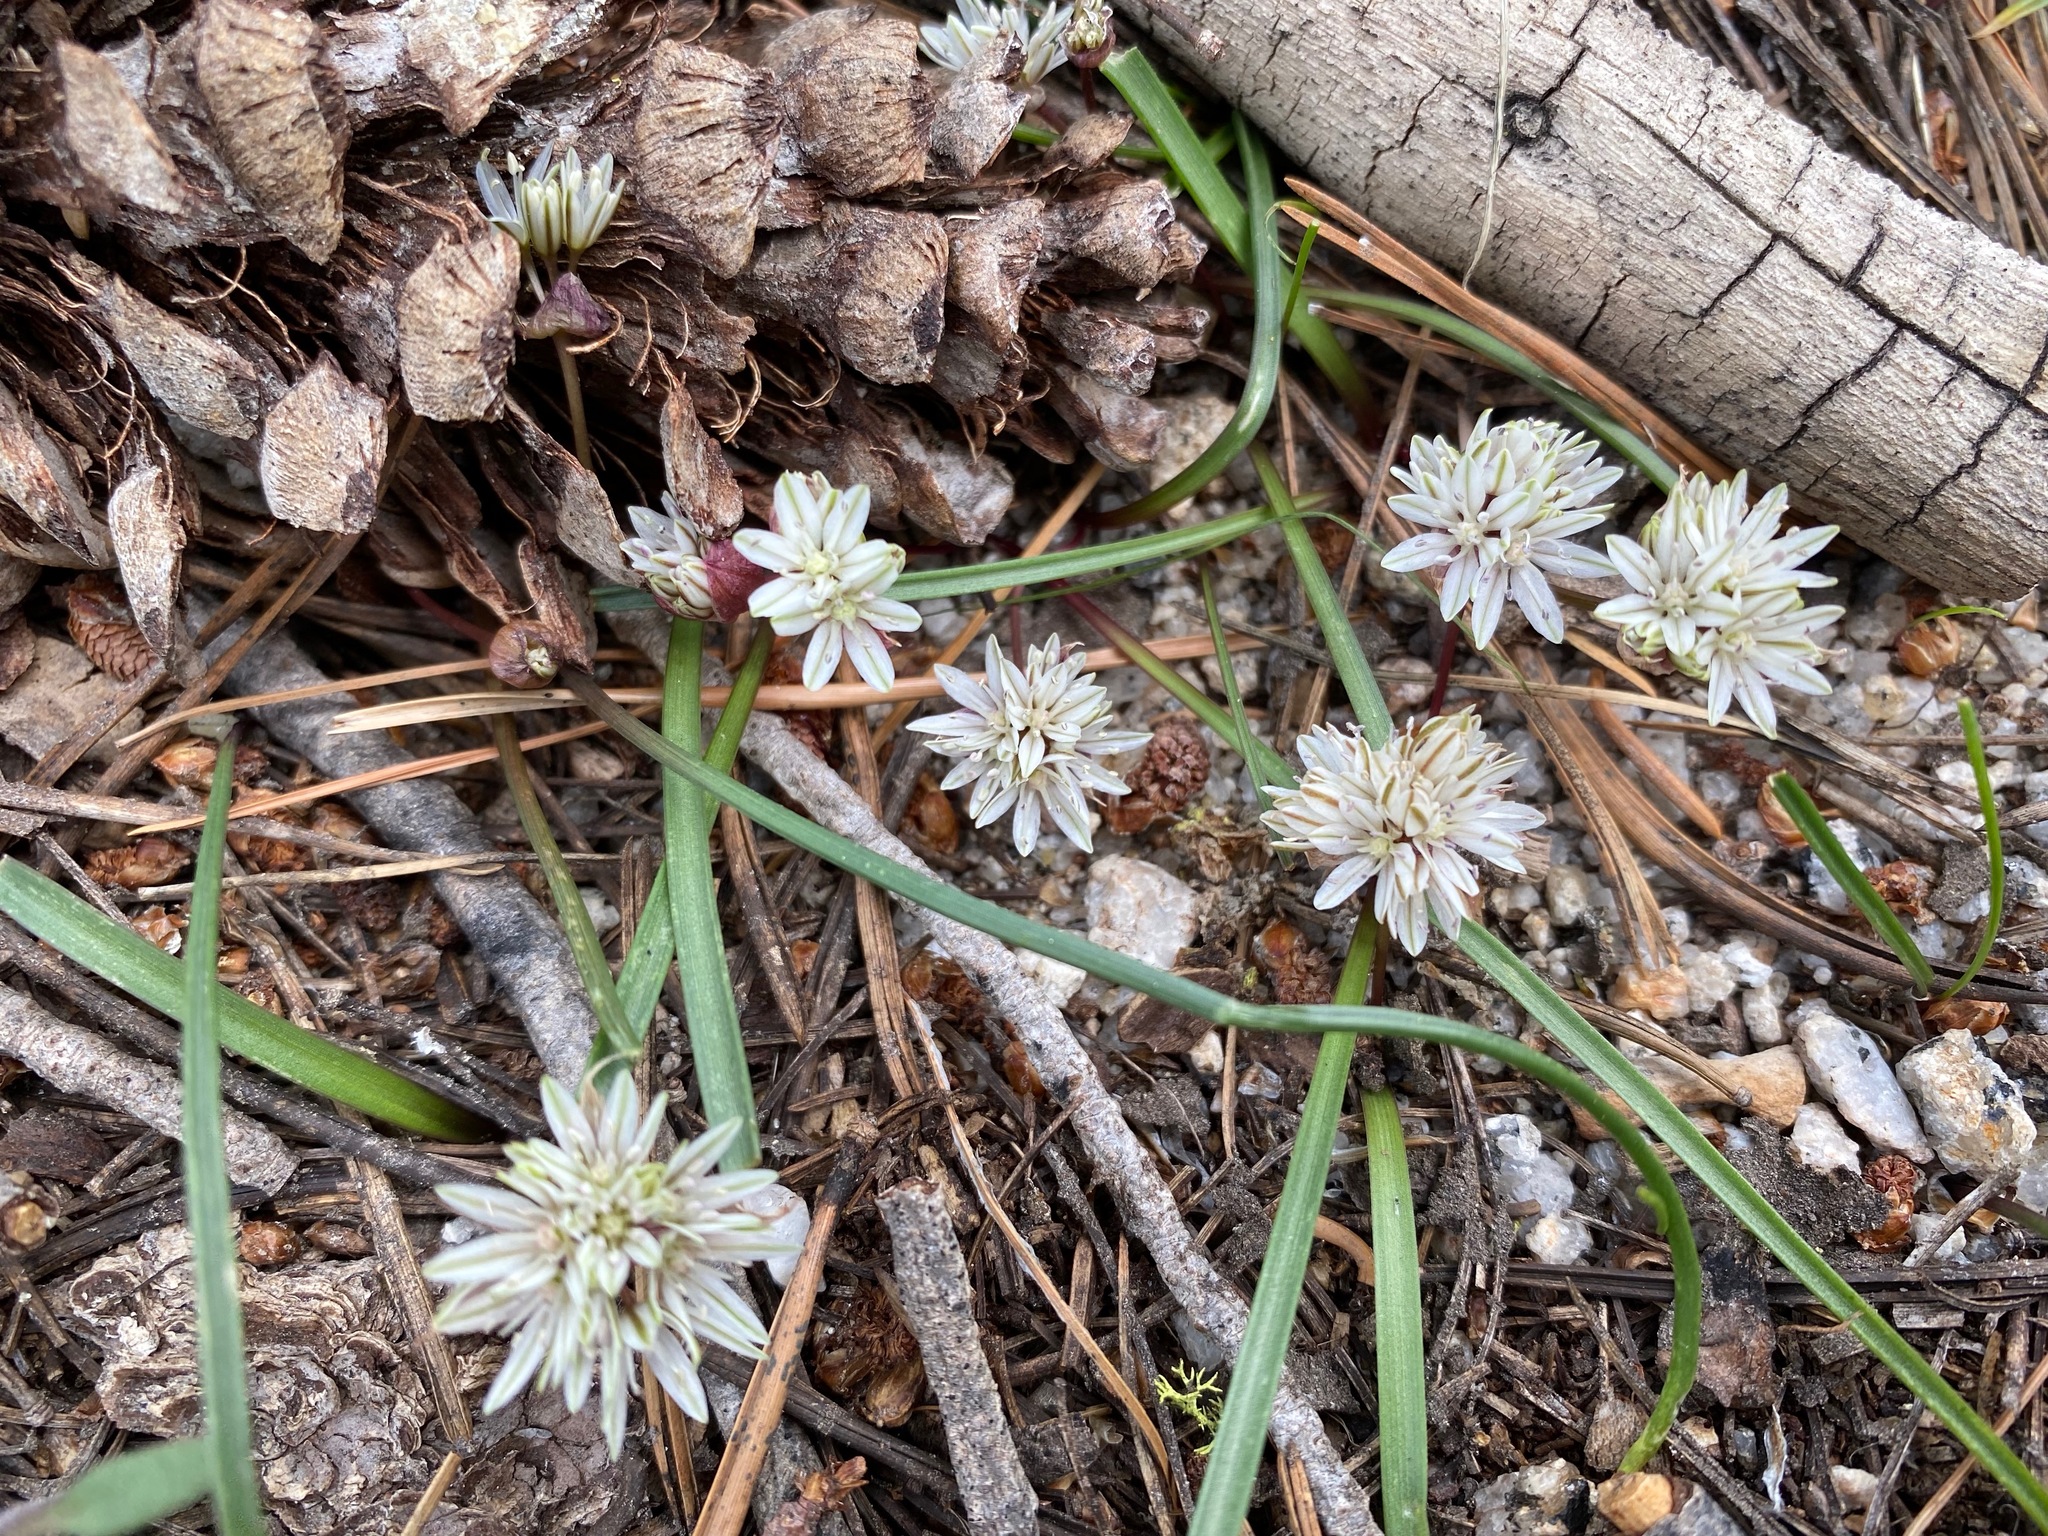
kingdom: Plantae
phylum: Tracheophyta
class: Liliopsida
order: Asparagales
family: Amaryllidaceae
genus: Allium
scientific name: Allium obtusum
